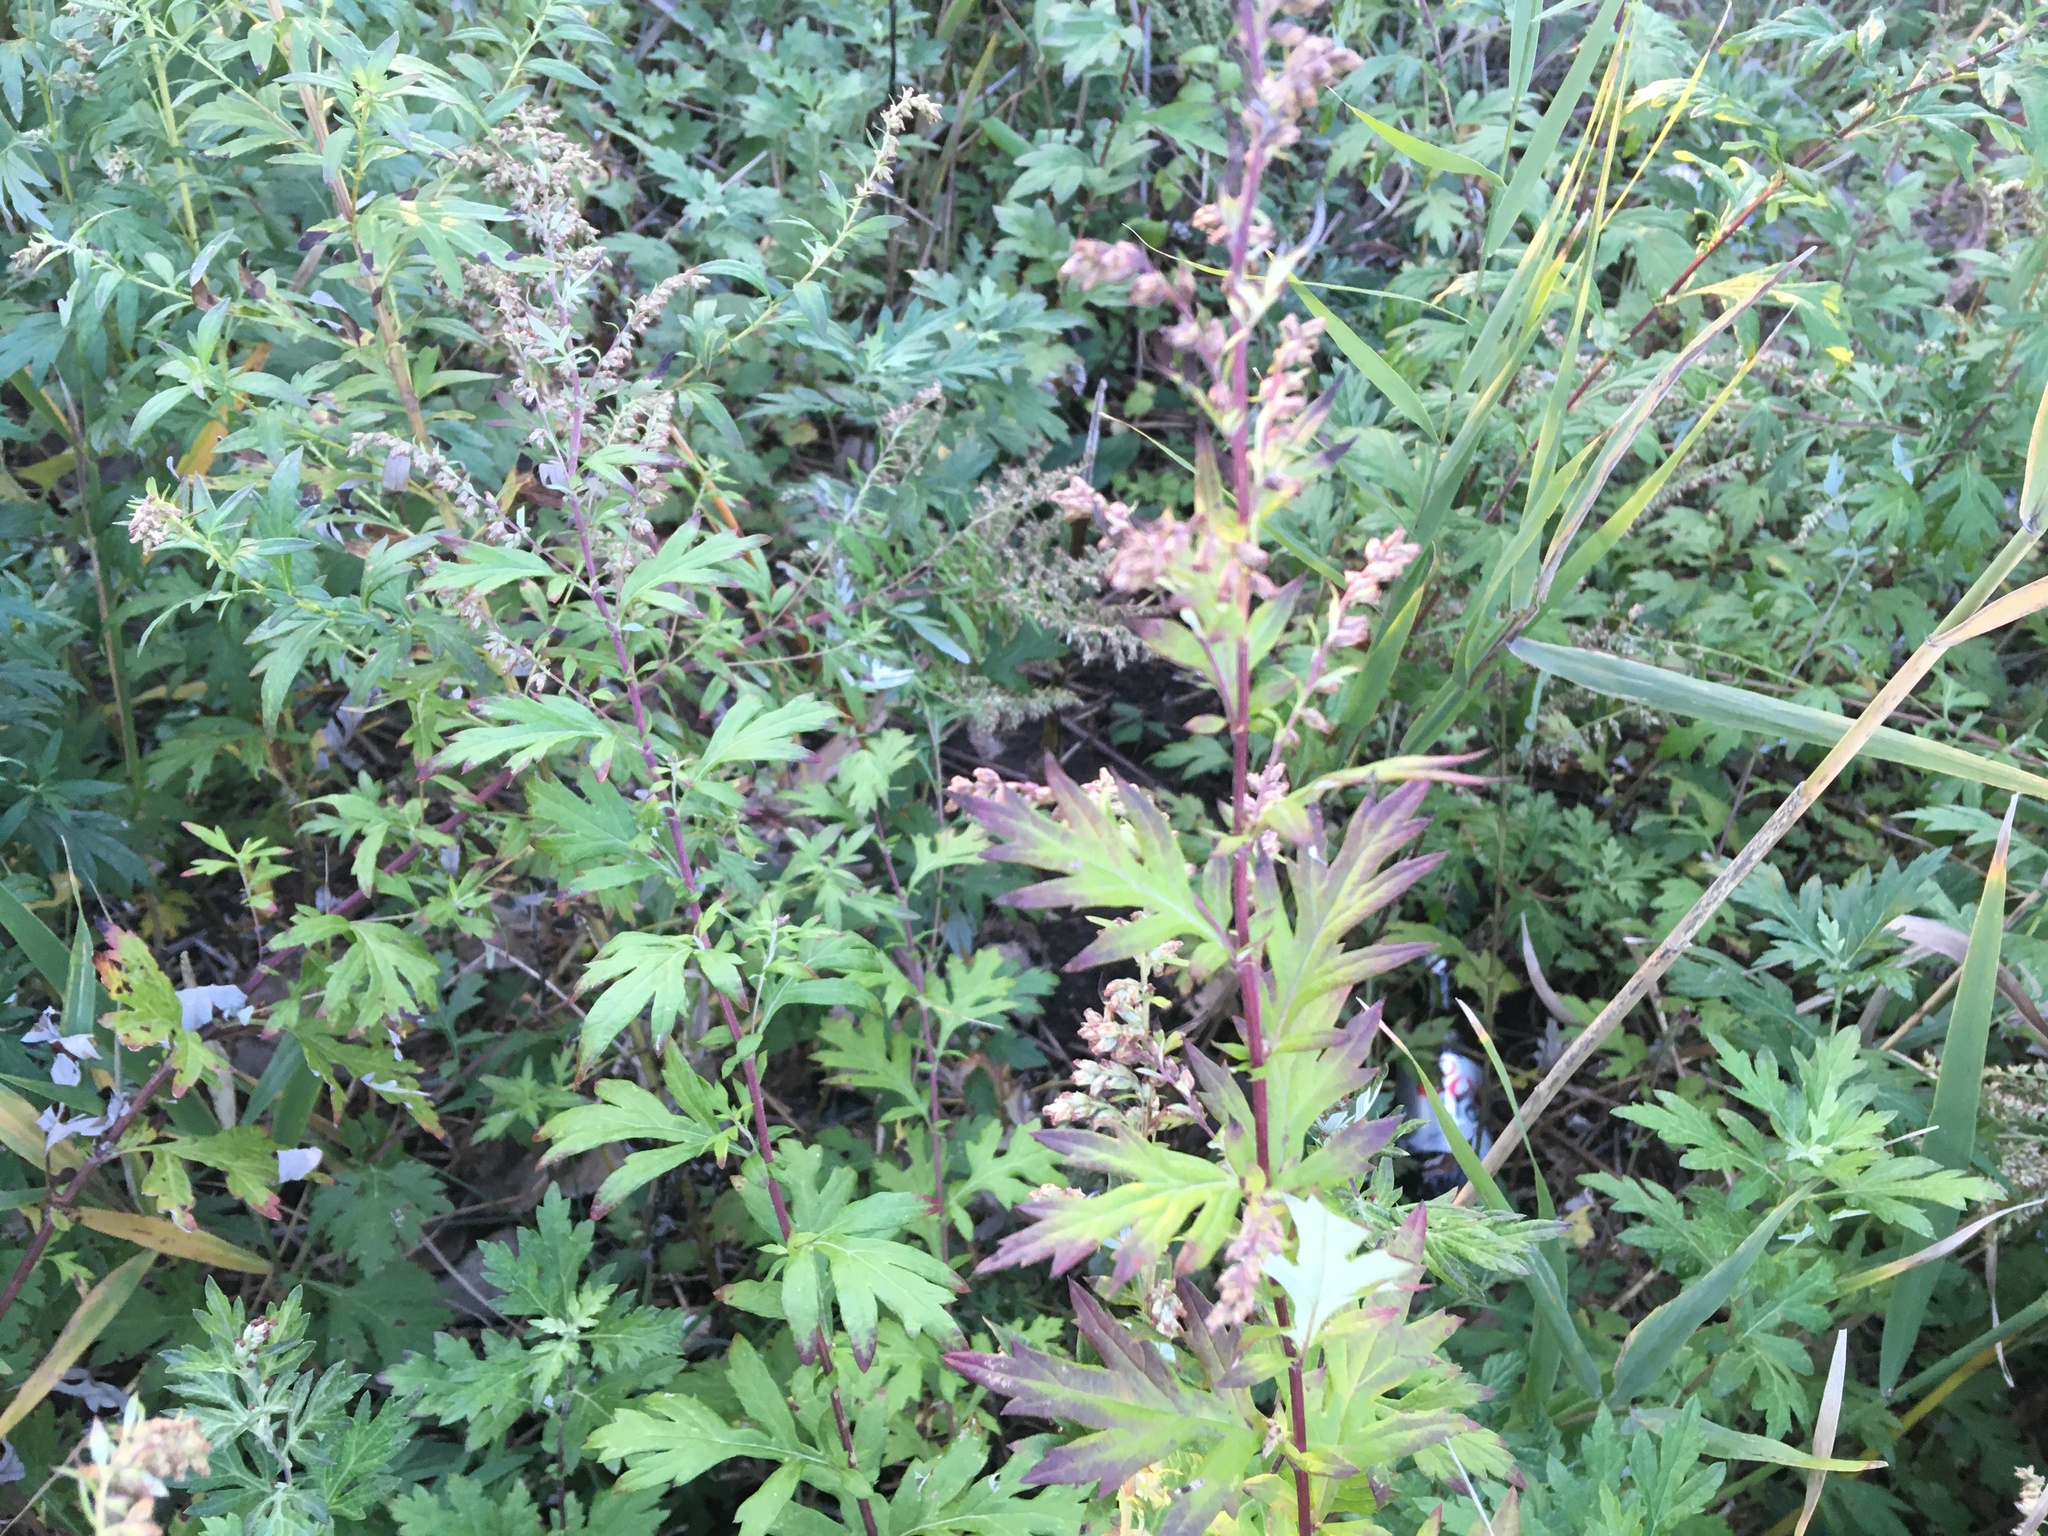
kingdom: Plantae
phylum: Tracheophyta
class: Magnoliopsida
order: Asterales
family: Asteraceae
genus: Artemisia
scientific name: Artemisia vulgaris
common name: Mugwort
